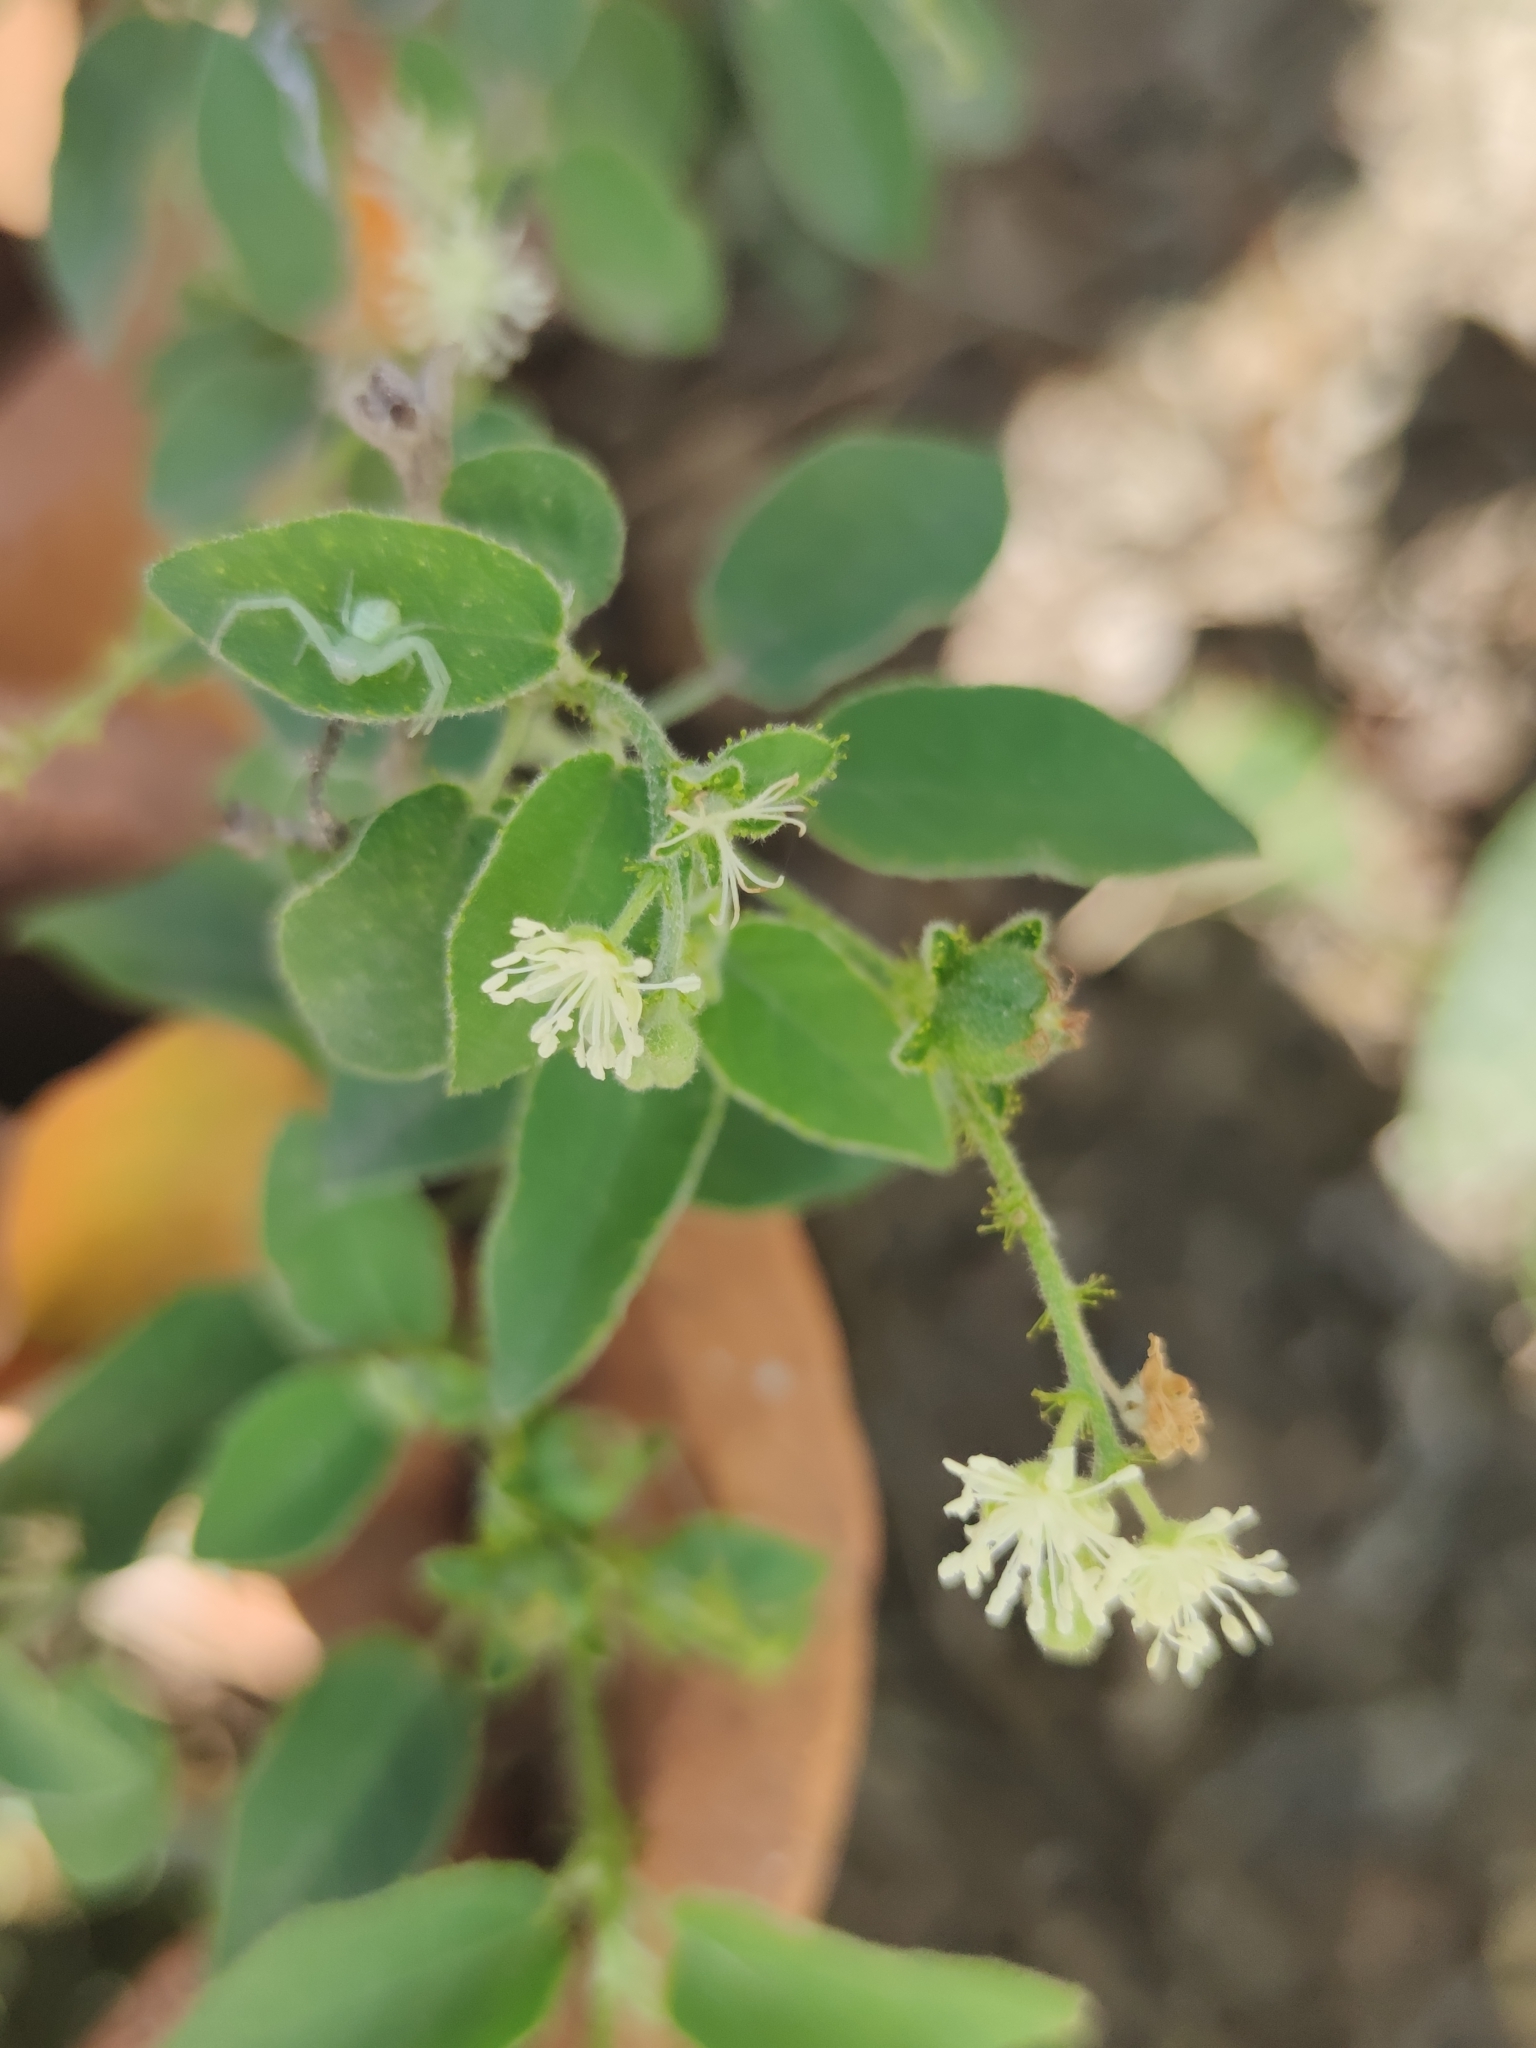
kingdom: Plantae
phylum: Tracheophyta
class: Magnoliopsida
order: Malpighiales
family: Euphorbiaceae
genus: Croton
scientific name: Croton ciliatoglandulifer
